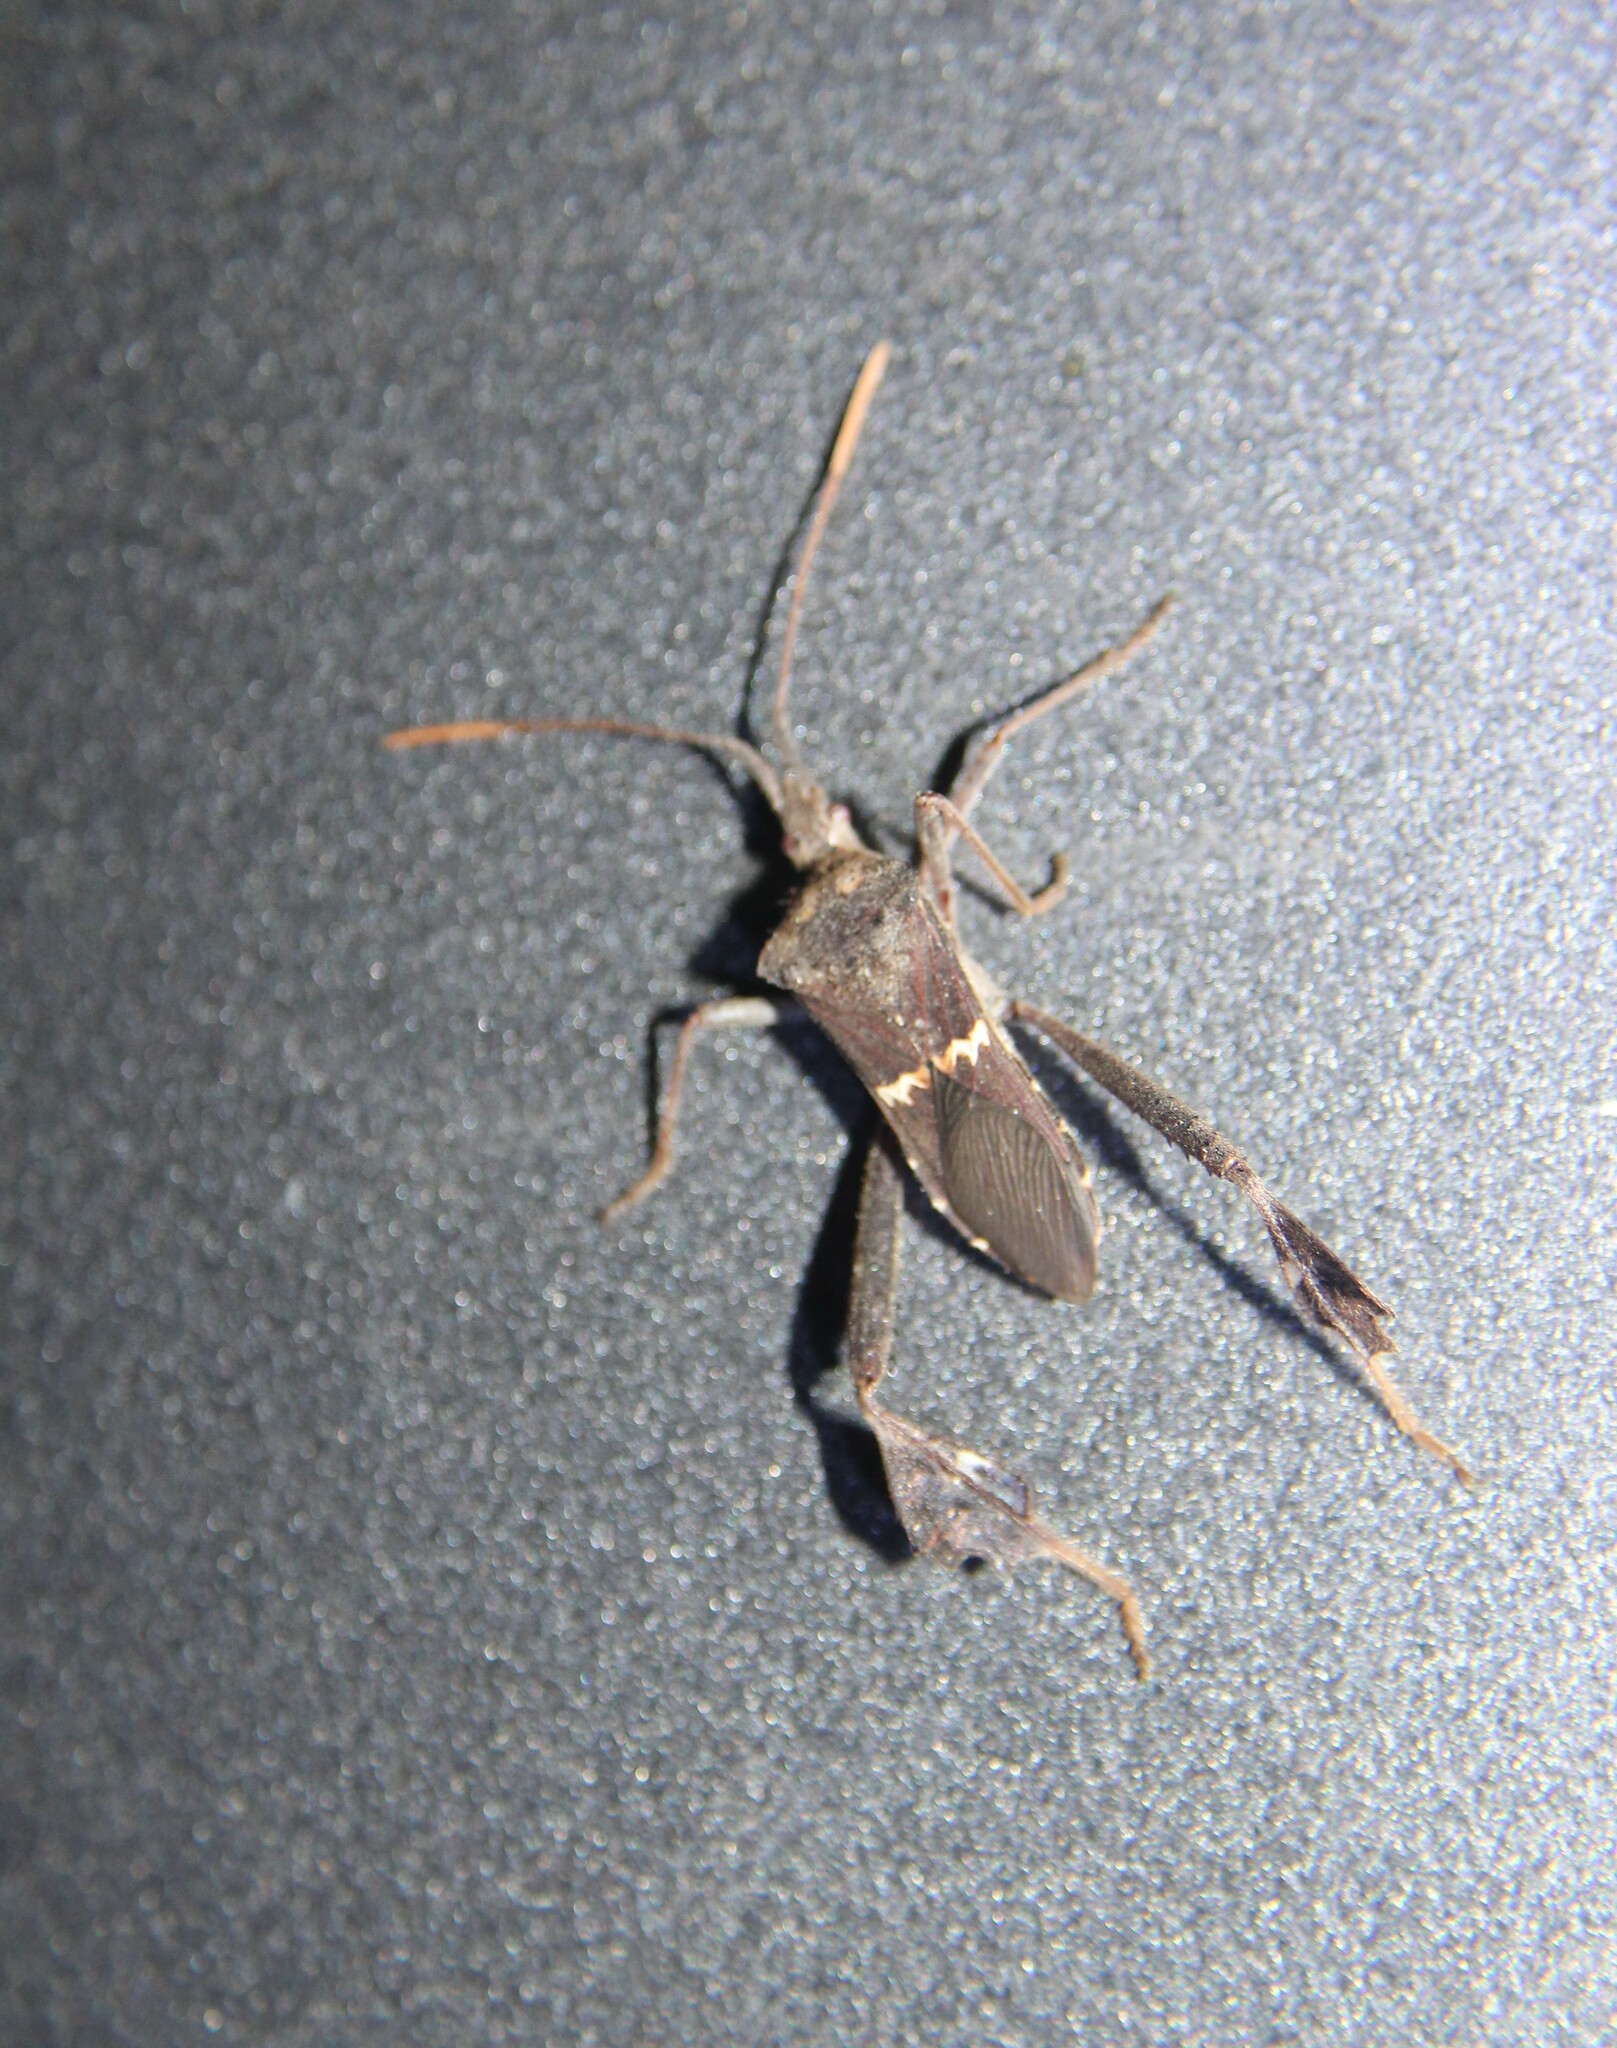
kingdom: Animalia
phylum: Arthropoda
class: Insecta
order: Hemiptera
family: Coreidae
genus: Leptoglossus
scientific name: Leptoglossus zonatus
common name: Large-legged bug
